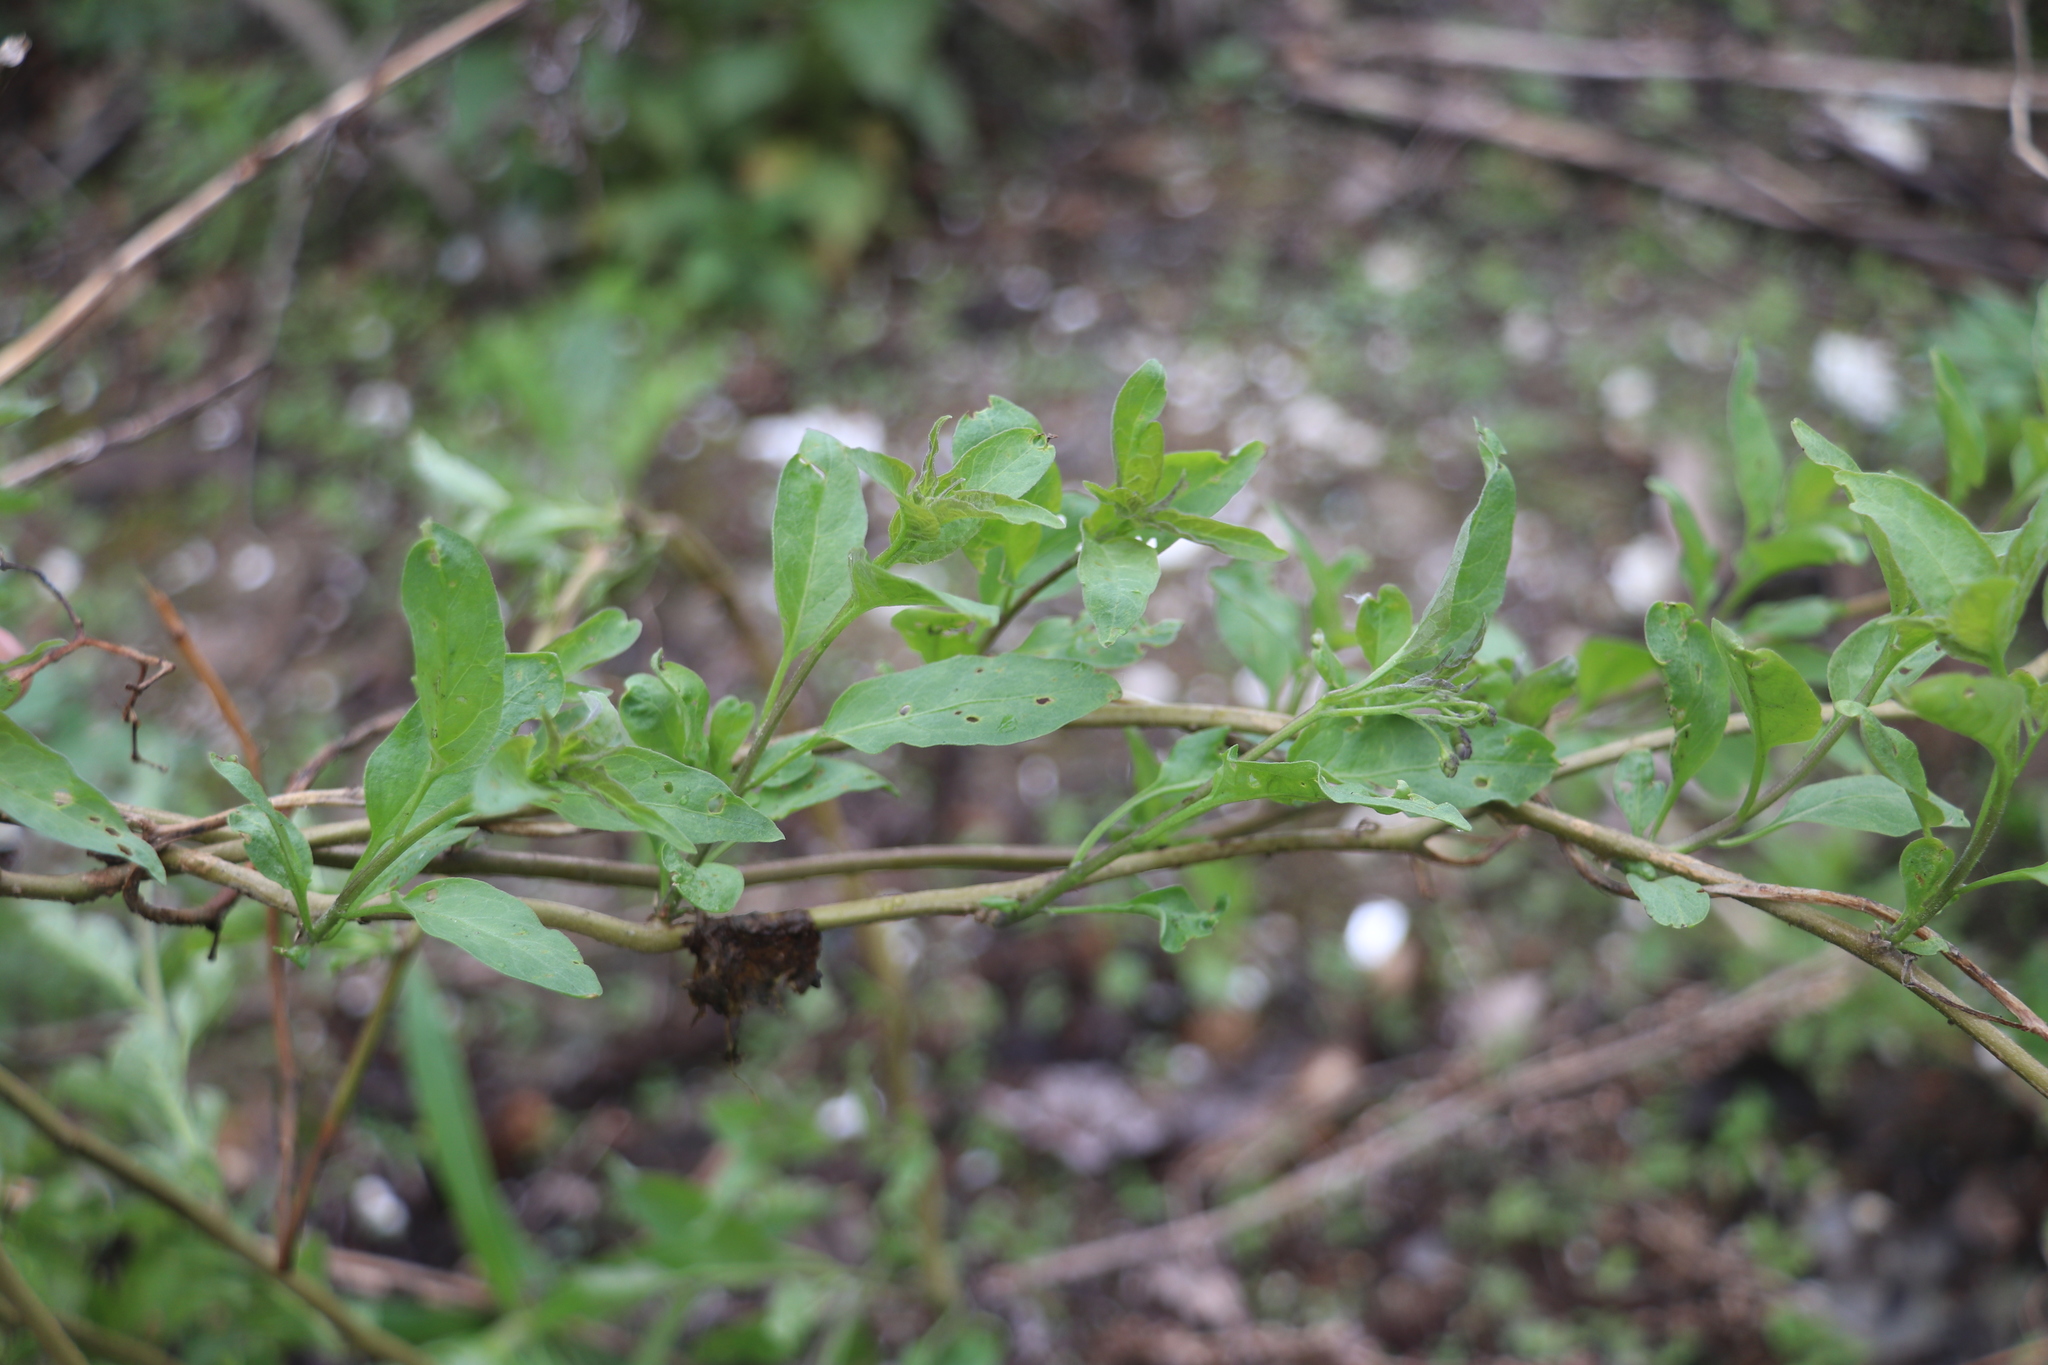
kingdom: Plantae
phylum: Tracheophyta
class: Magnoliopsida
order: Solanales
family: Solanaceae
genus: Solanum
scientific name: Solanum dulcamara
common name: Climbing nightshade
